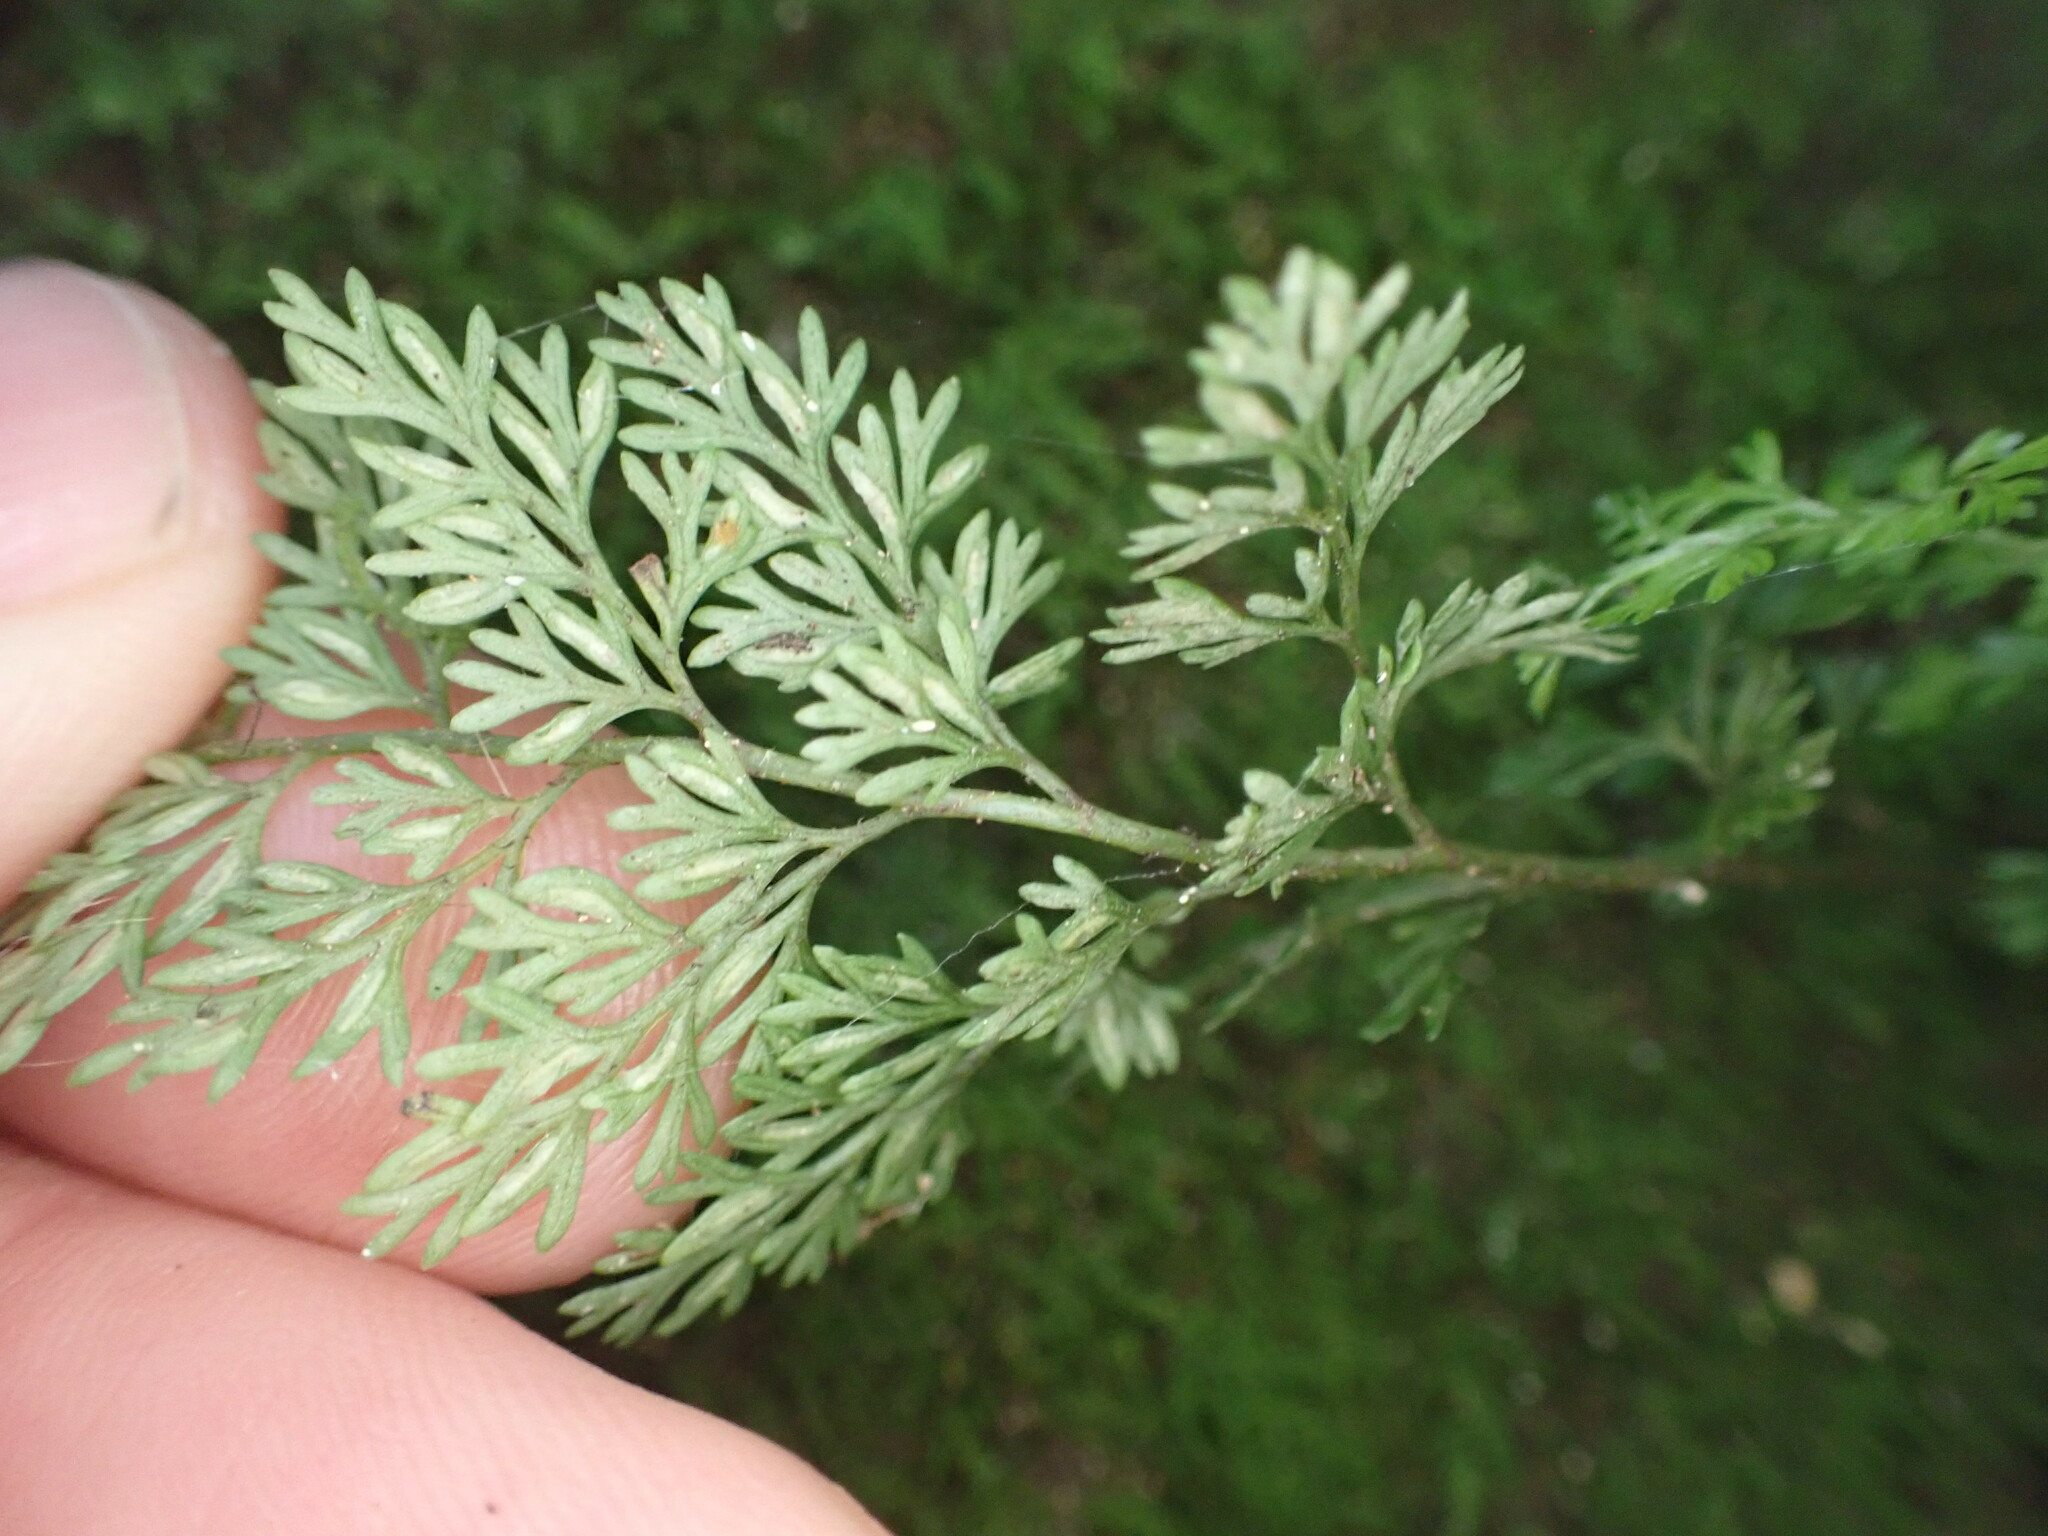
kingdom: Plantae
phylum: Tracheophyta
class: Polypodiopsida
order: Polypodiales
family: Aspleniaceae
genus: Asplenium
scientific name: Asplenium hookerianum
